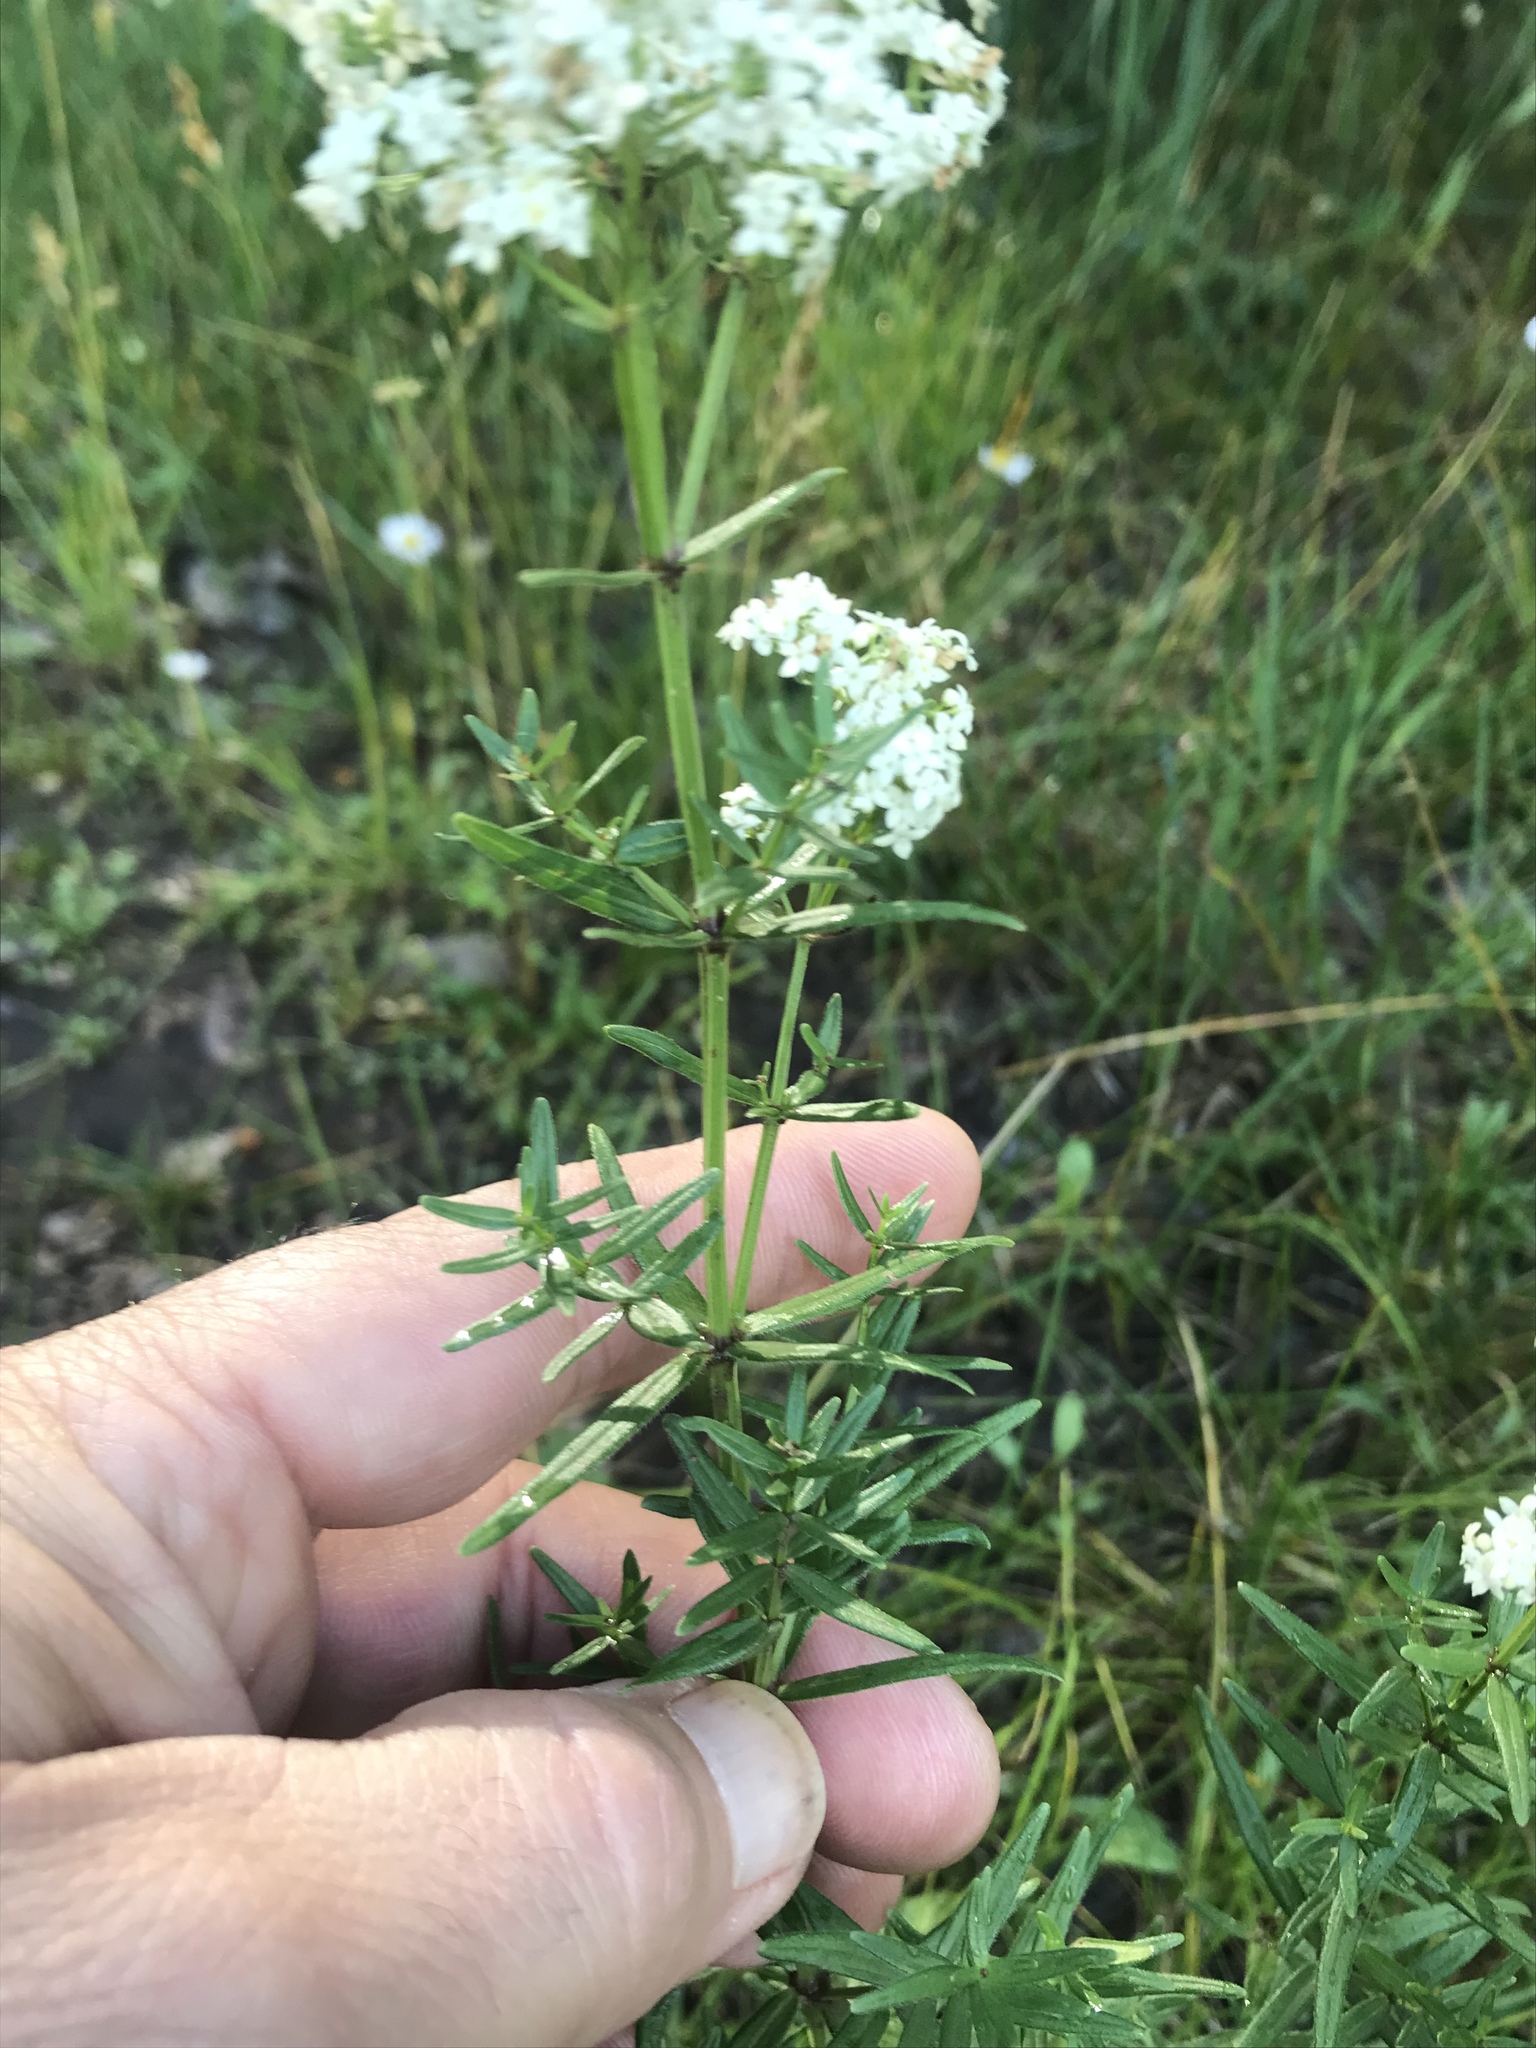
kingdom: Plantae
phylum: Tracheophyta
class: Magnoliopsida
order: Gentianales
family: Rubiaceae
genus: Galium
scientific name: Galium boreale
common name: Northern bedstraw
